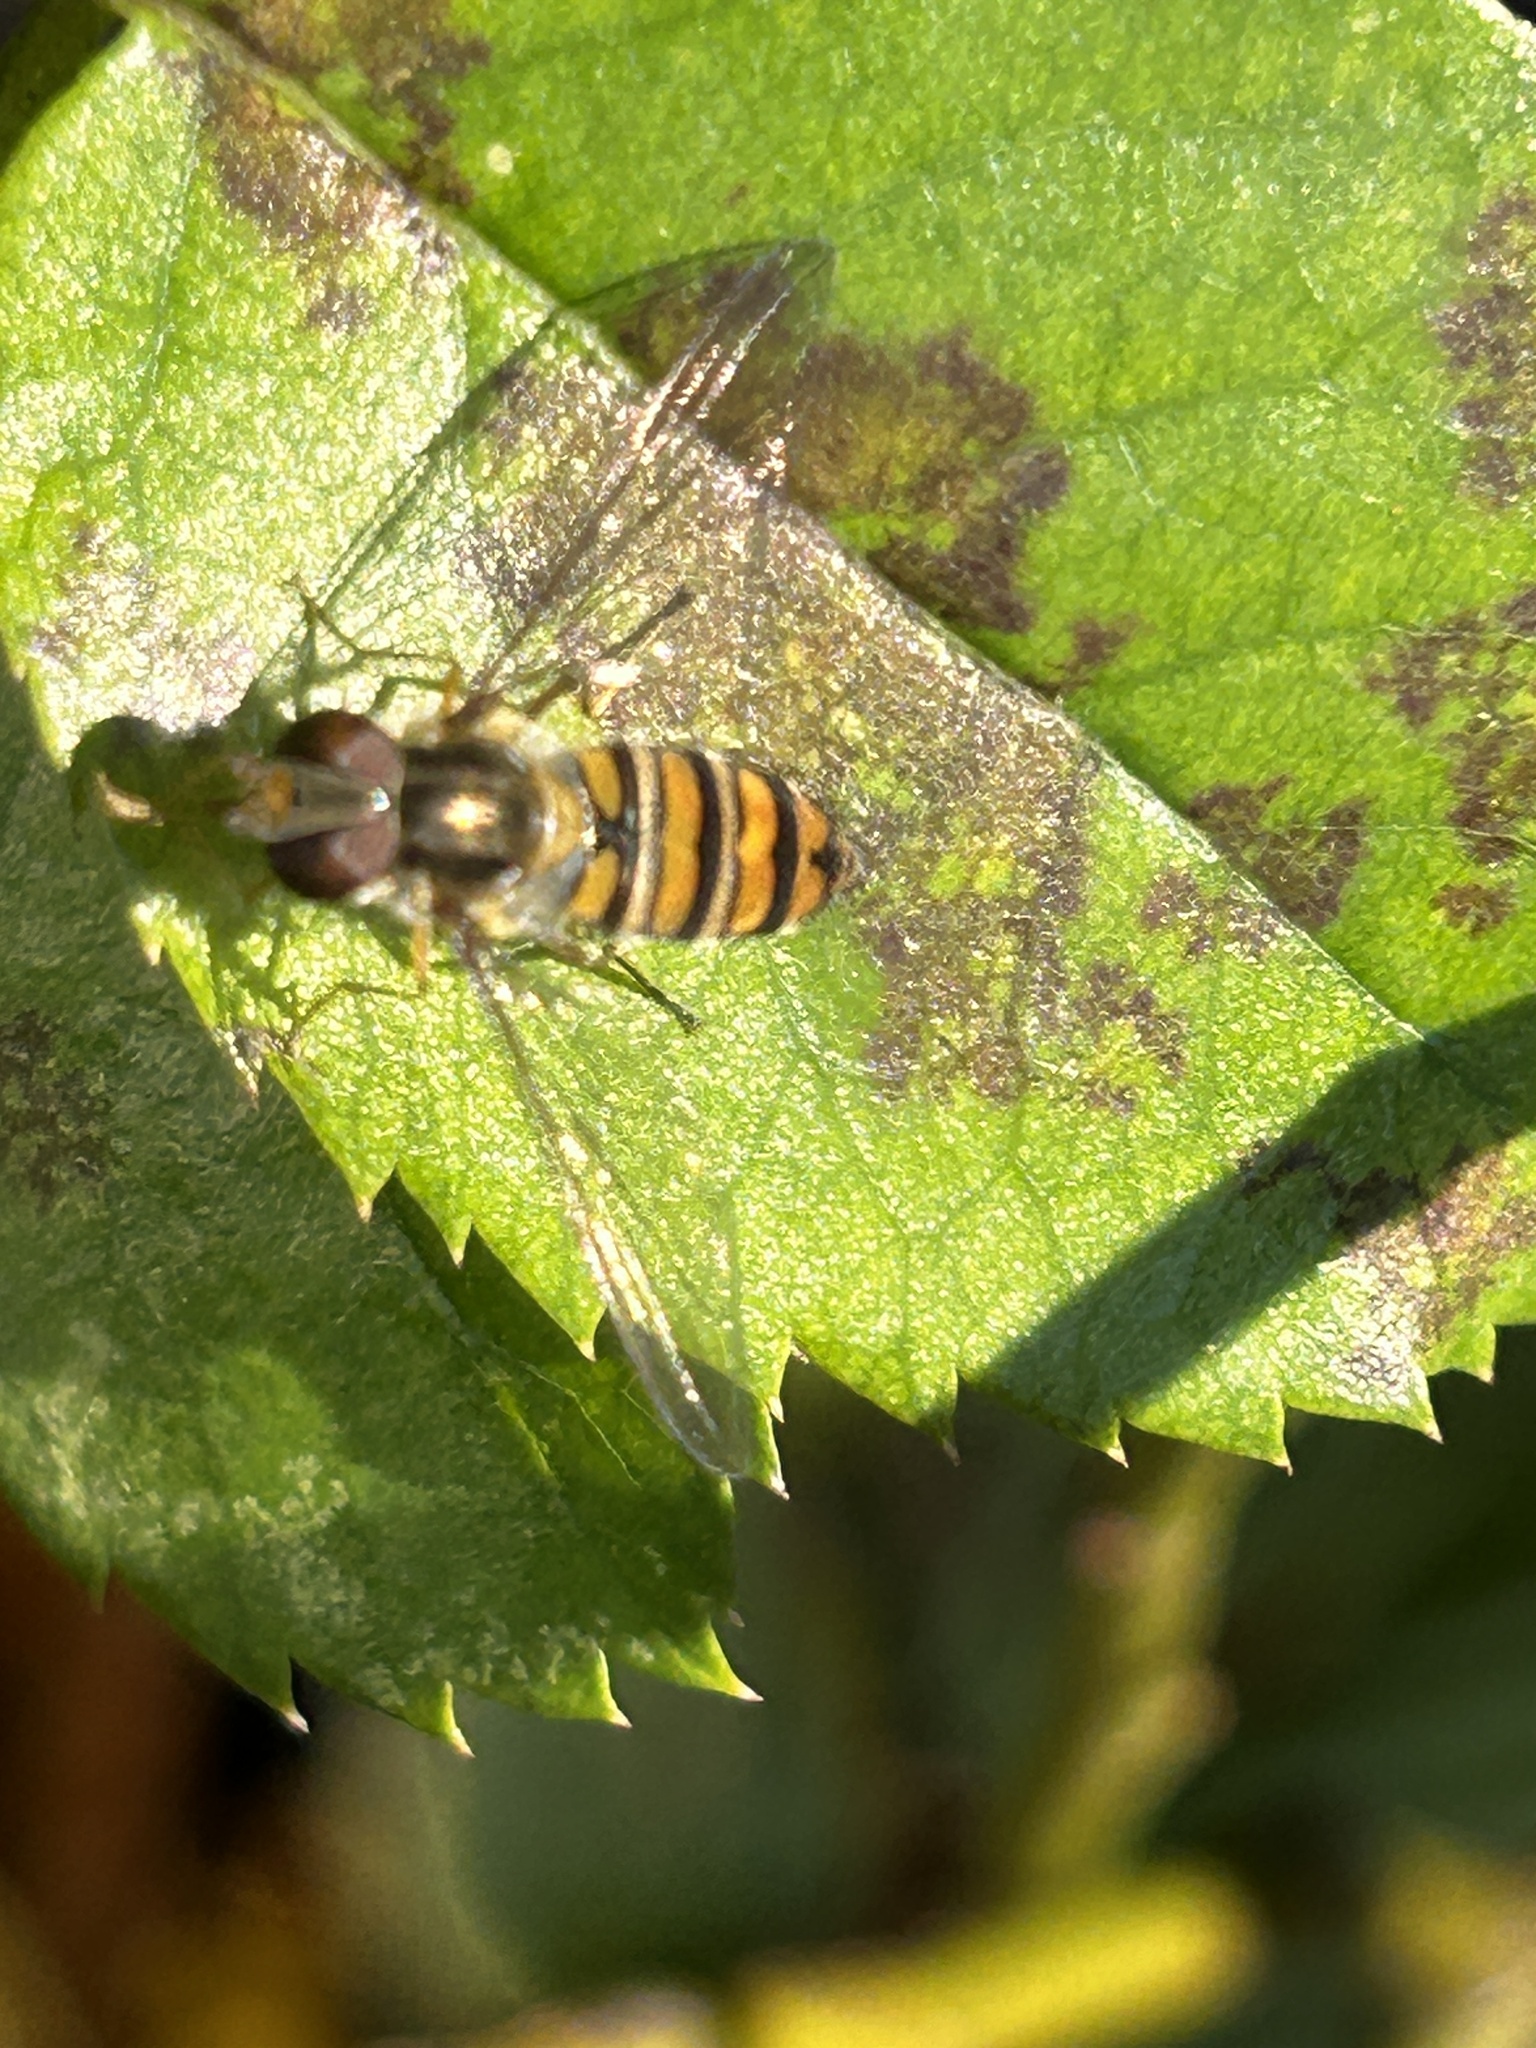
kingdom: Animalia
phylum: Arthropoda
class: Insecta
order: Diptera
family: Syrphidae
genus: Episyrphus
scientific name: Episyrphus balteatus
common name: Marmalade hoverfly
